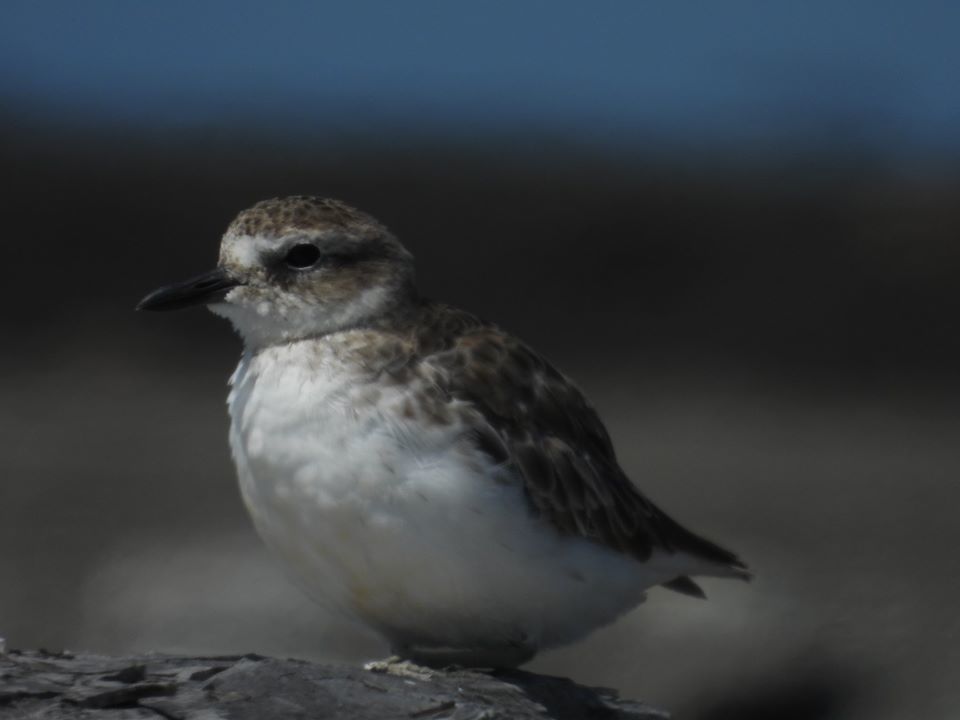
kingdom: Animalia
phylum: Chordata
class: Aves
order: Charadriiformes
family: Charadriidae
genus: Anarhynchus
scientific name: Anarhynchus
